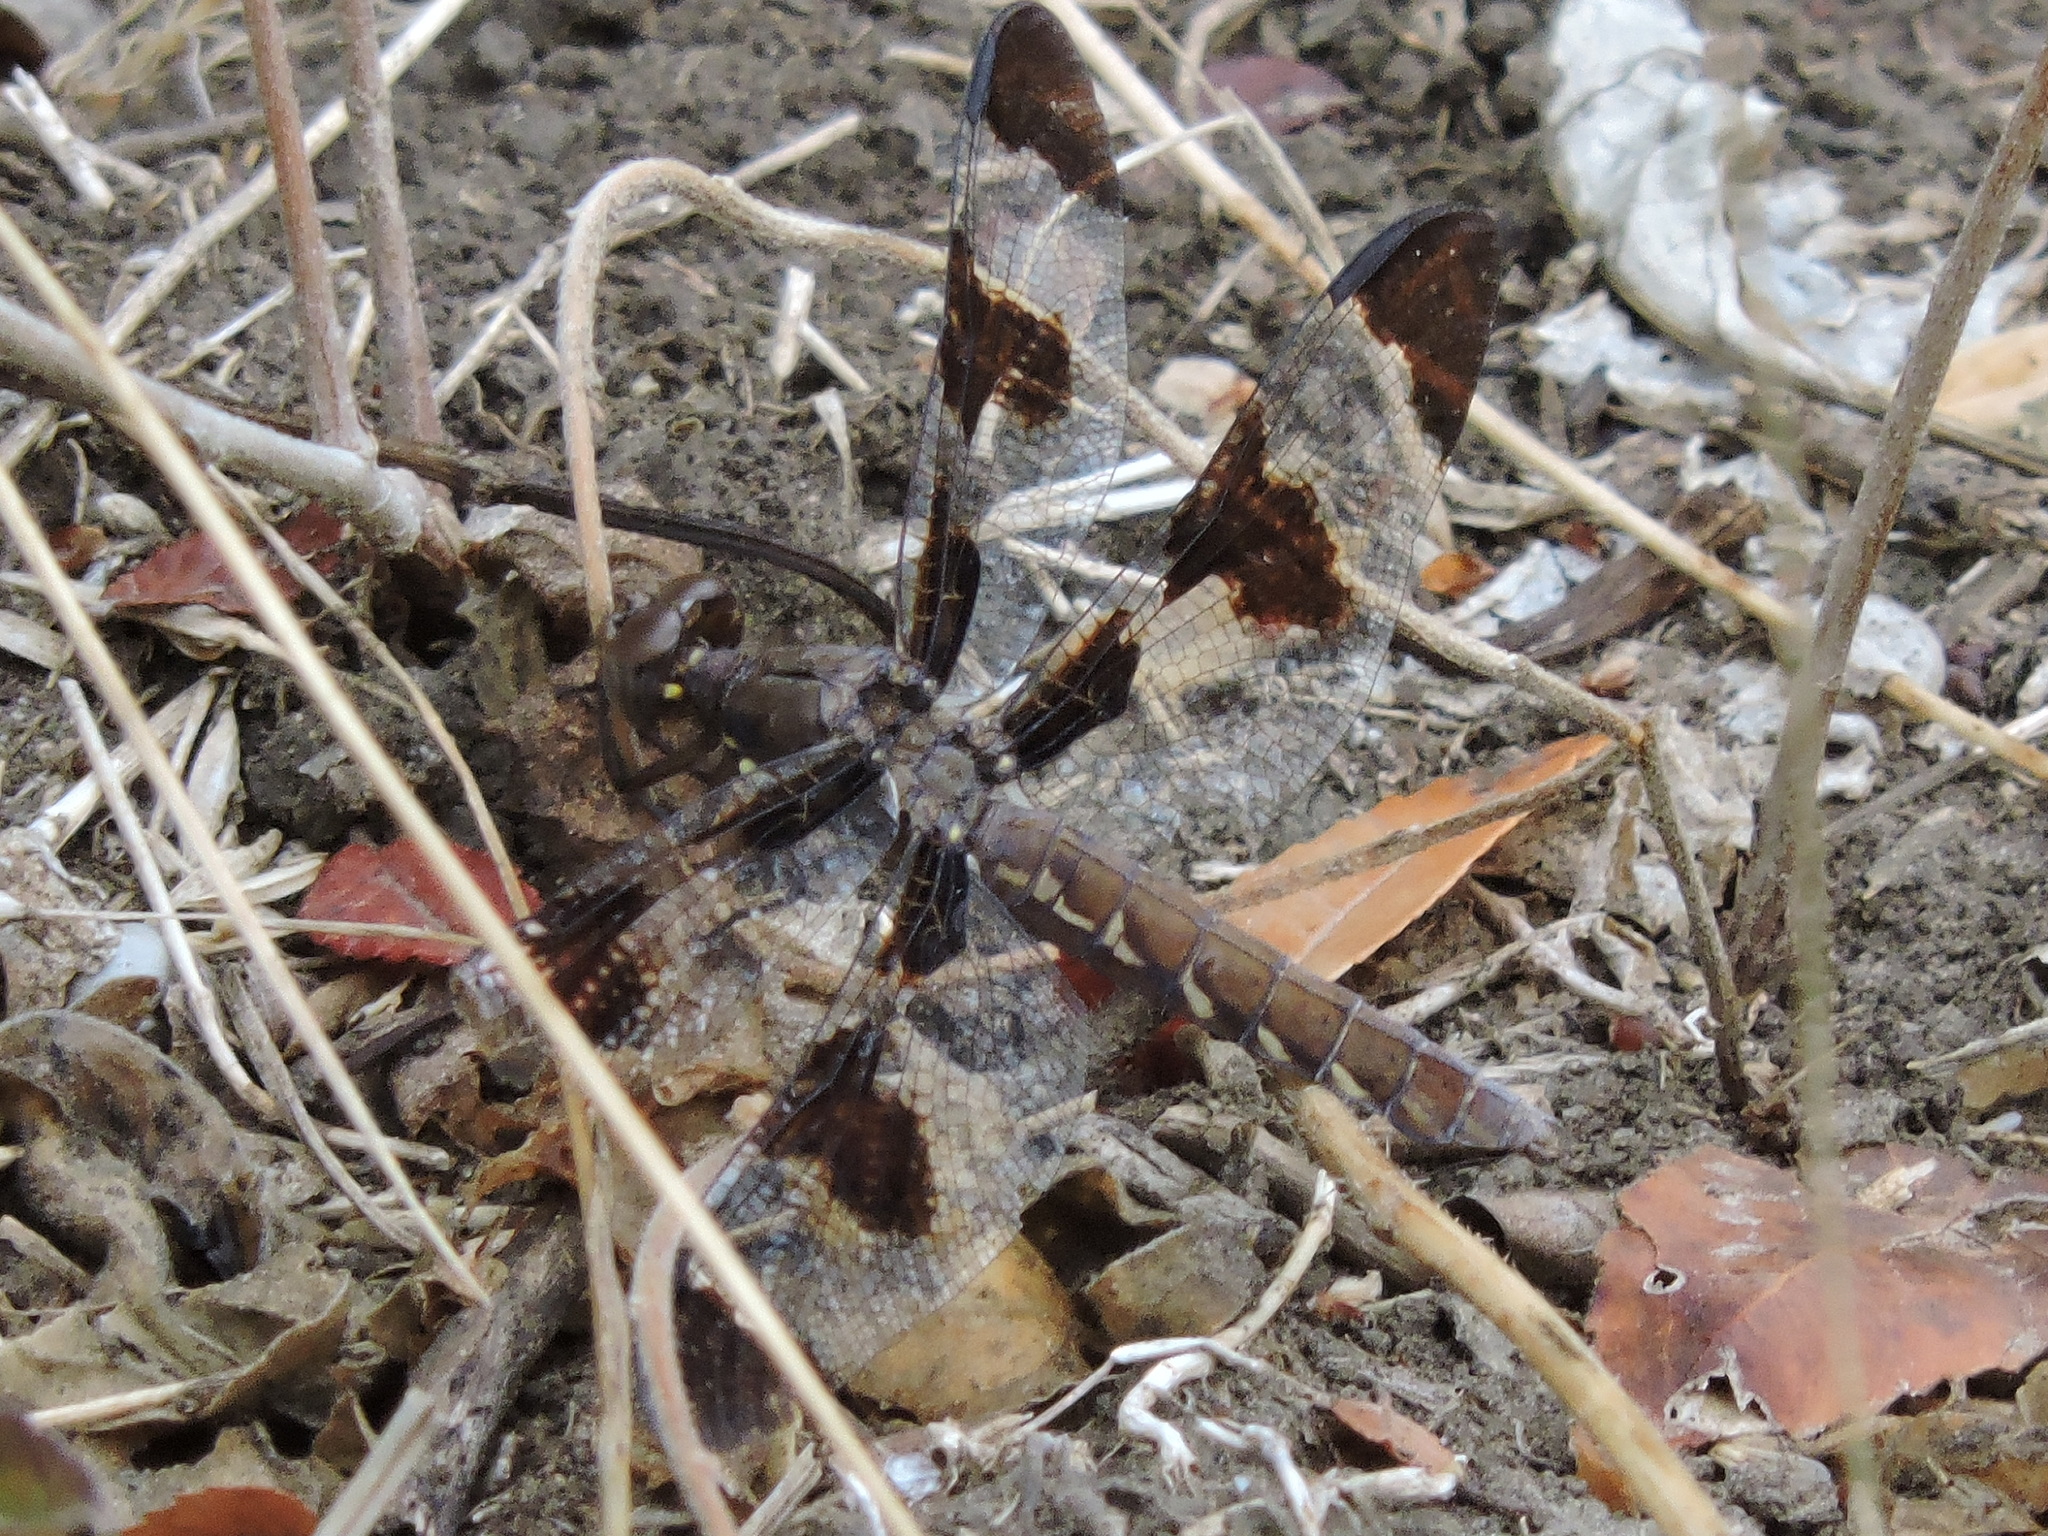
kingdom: Animalia
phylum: Arthropoda
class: Insecta
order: Odonata
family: Libellulidae
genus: Plathemis
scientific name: Plathemis lydia
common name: Common whitetail
